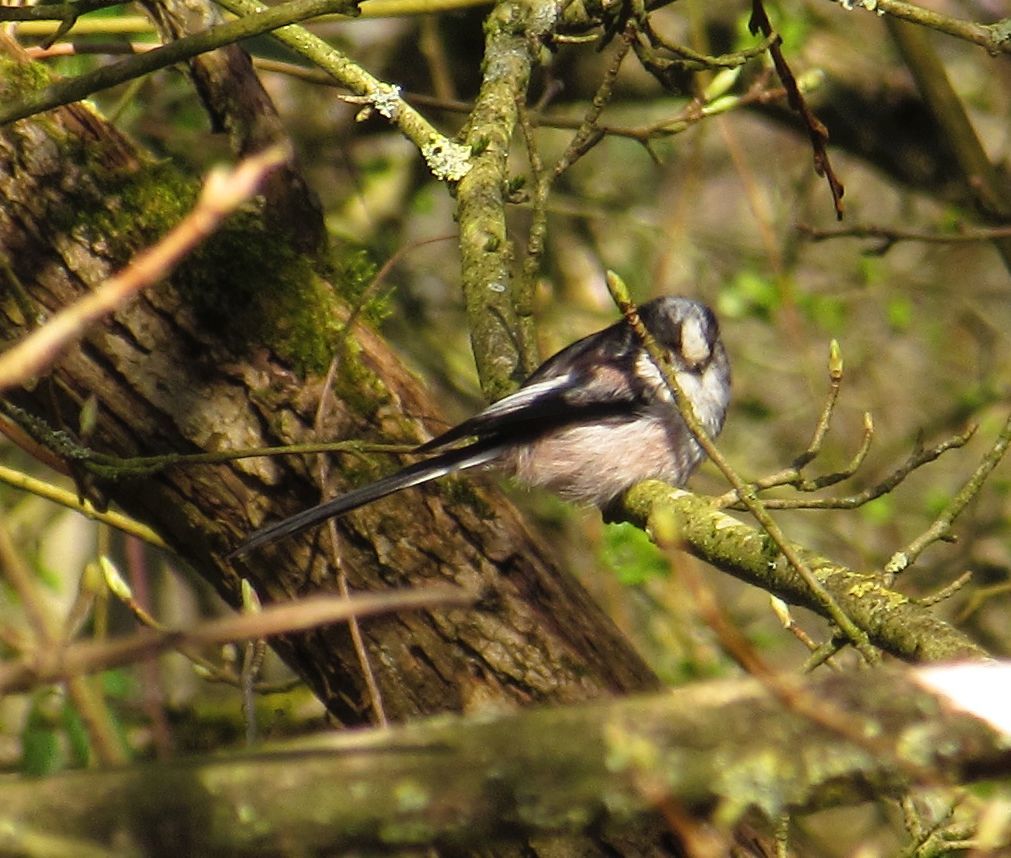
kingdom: Animalia
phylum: Chordata
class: Aves
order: Passeriformes
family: Aegithalidae
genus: Aegithalos
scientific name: Aegithalos caudatus
